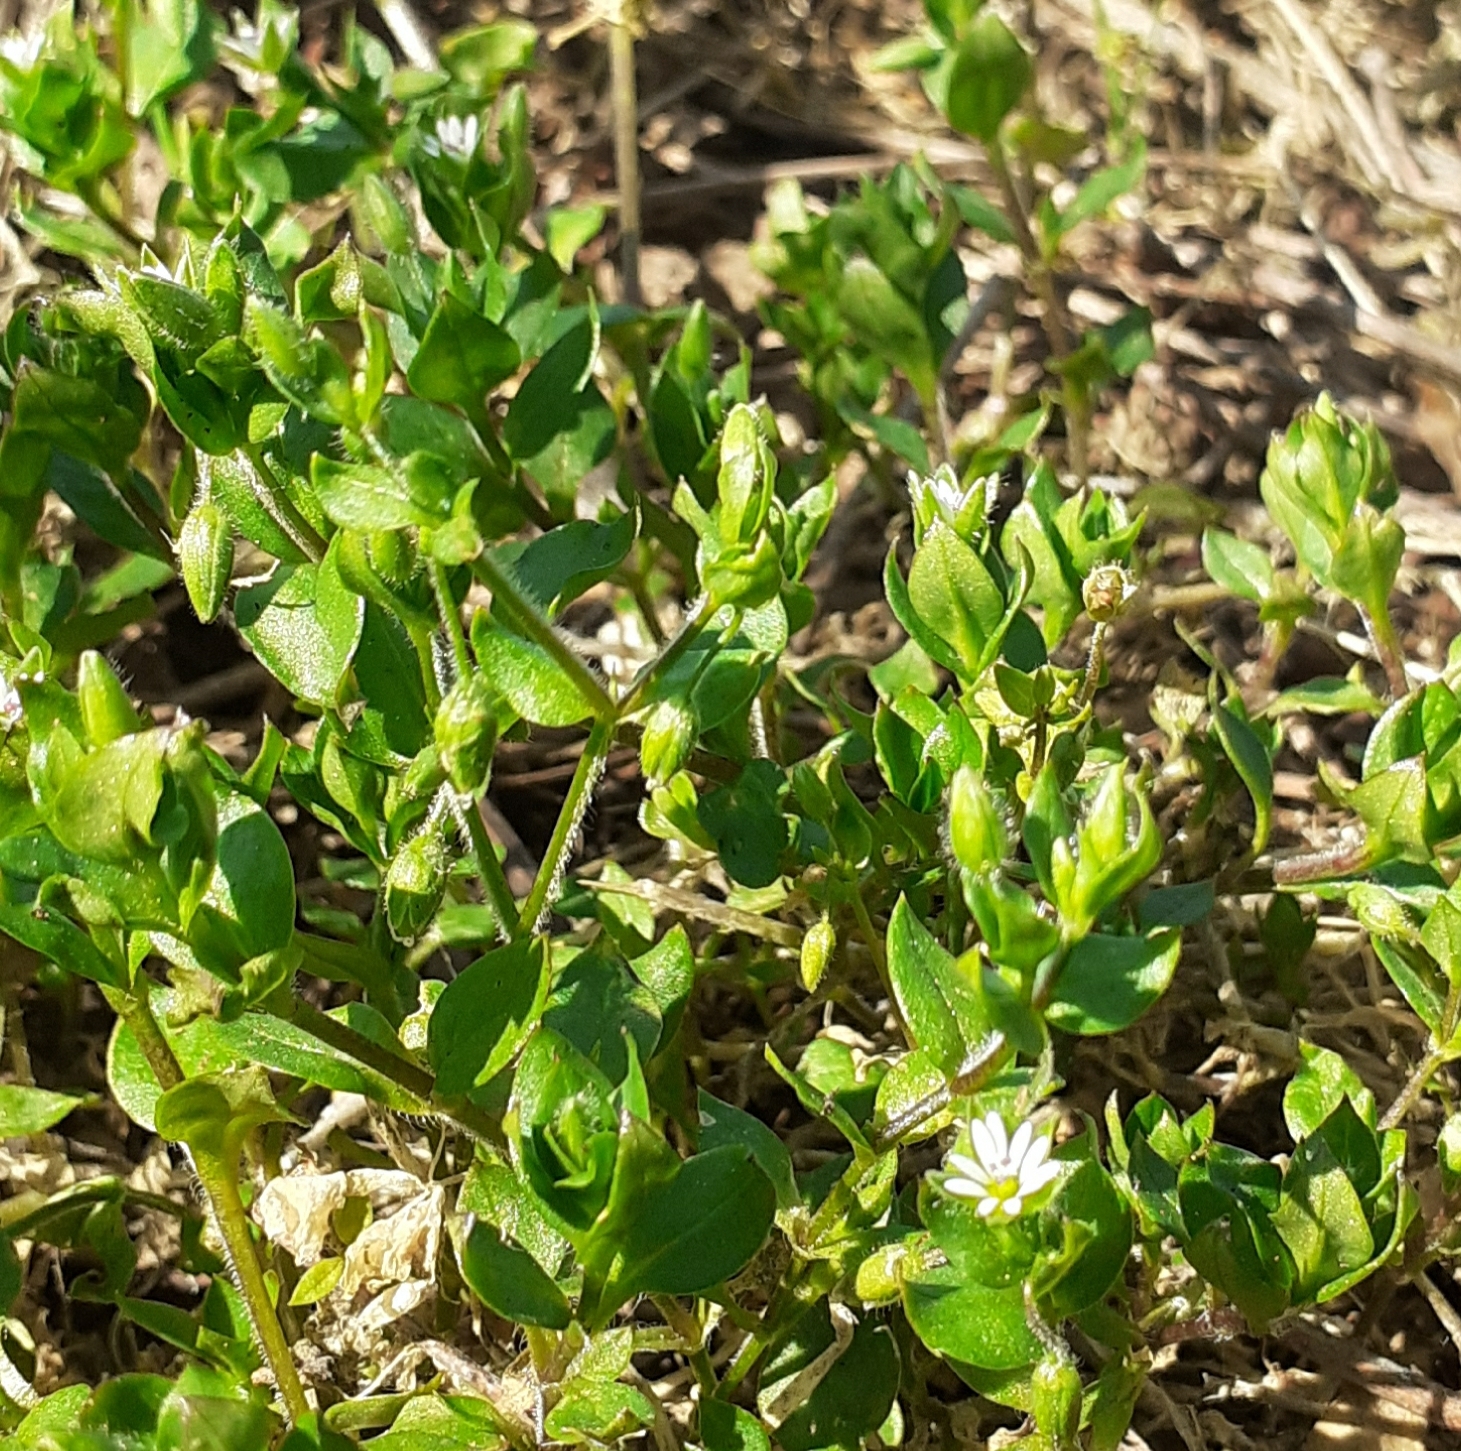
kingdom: Plantae
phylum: Tracheophyta
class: Magnoliopsida
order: Caryophyllales
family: Caryophyllaceae
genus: Stellaria
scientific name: Stellaria media
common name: Common chickweed
